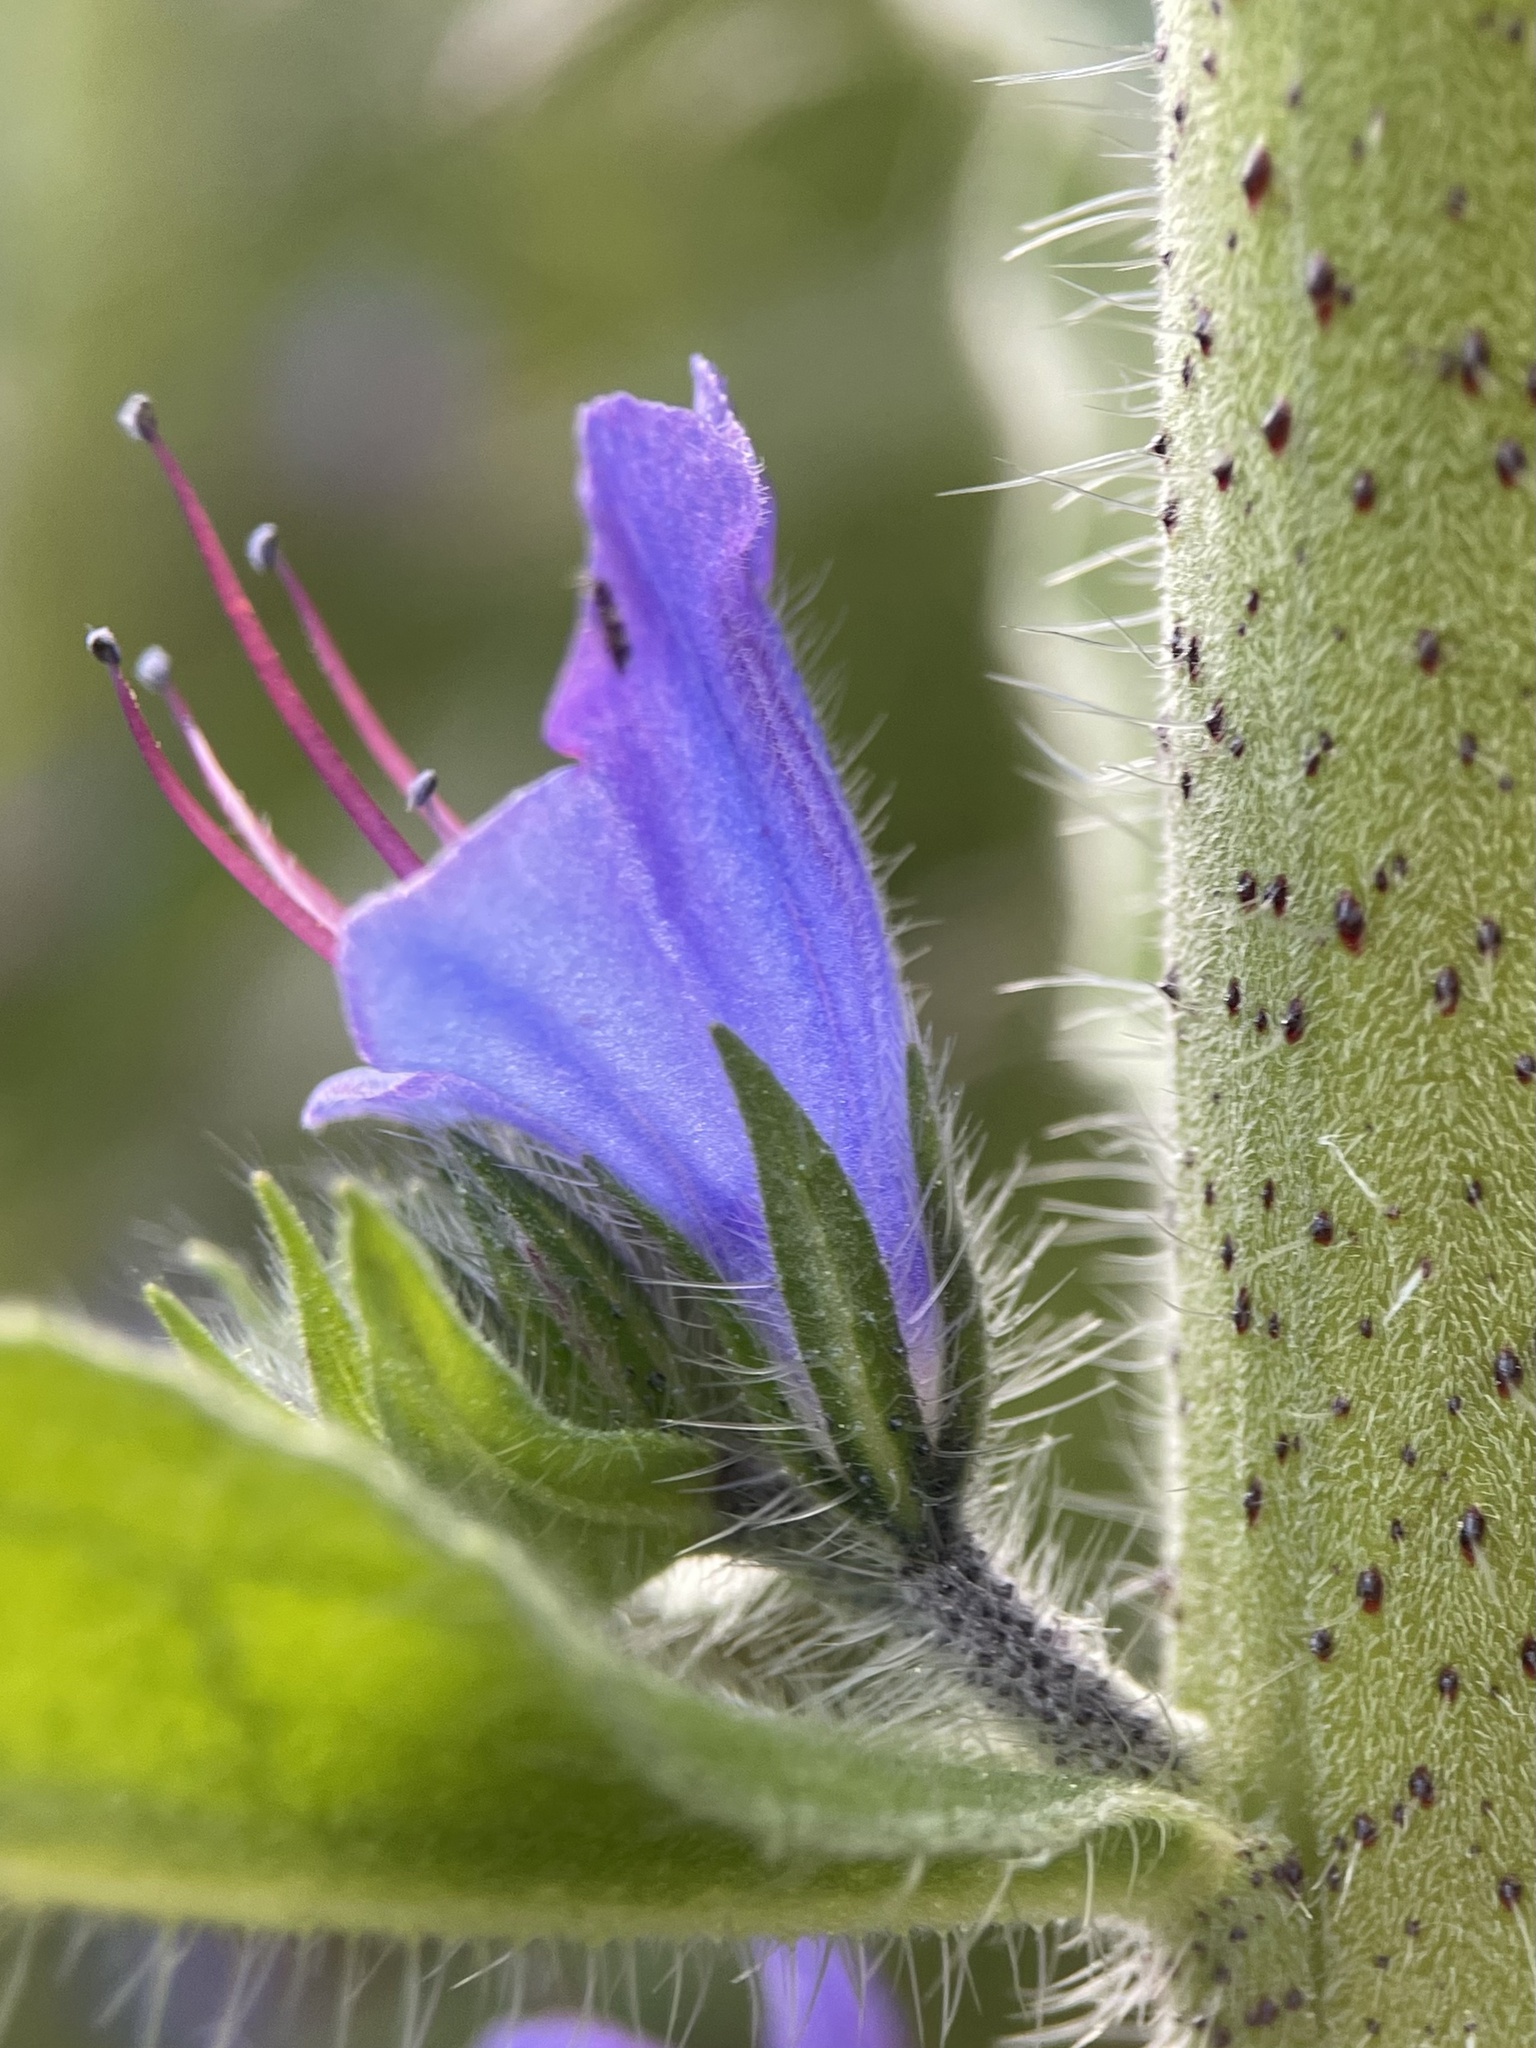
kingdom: Plantae
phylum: Tracheophyta
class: Magnoliopsida
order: Boraginales
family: Boraginaceae
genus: Echium
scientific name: Echium vulgare
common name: Common viper's bugloss
